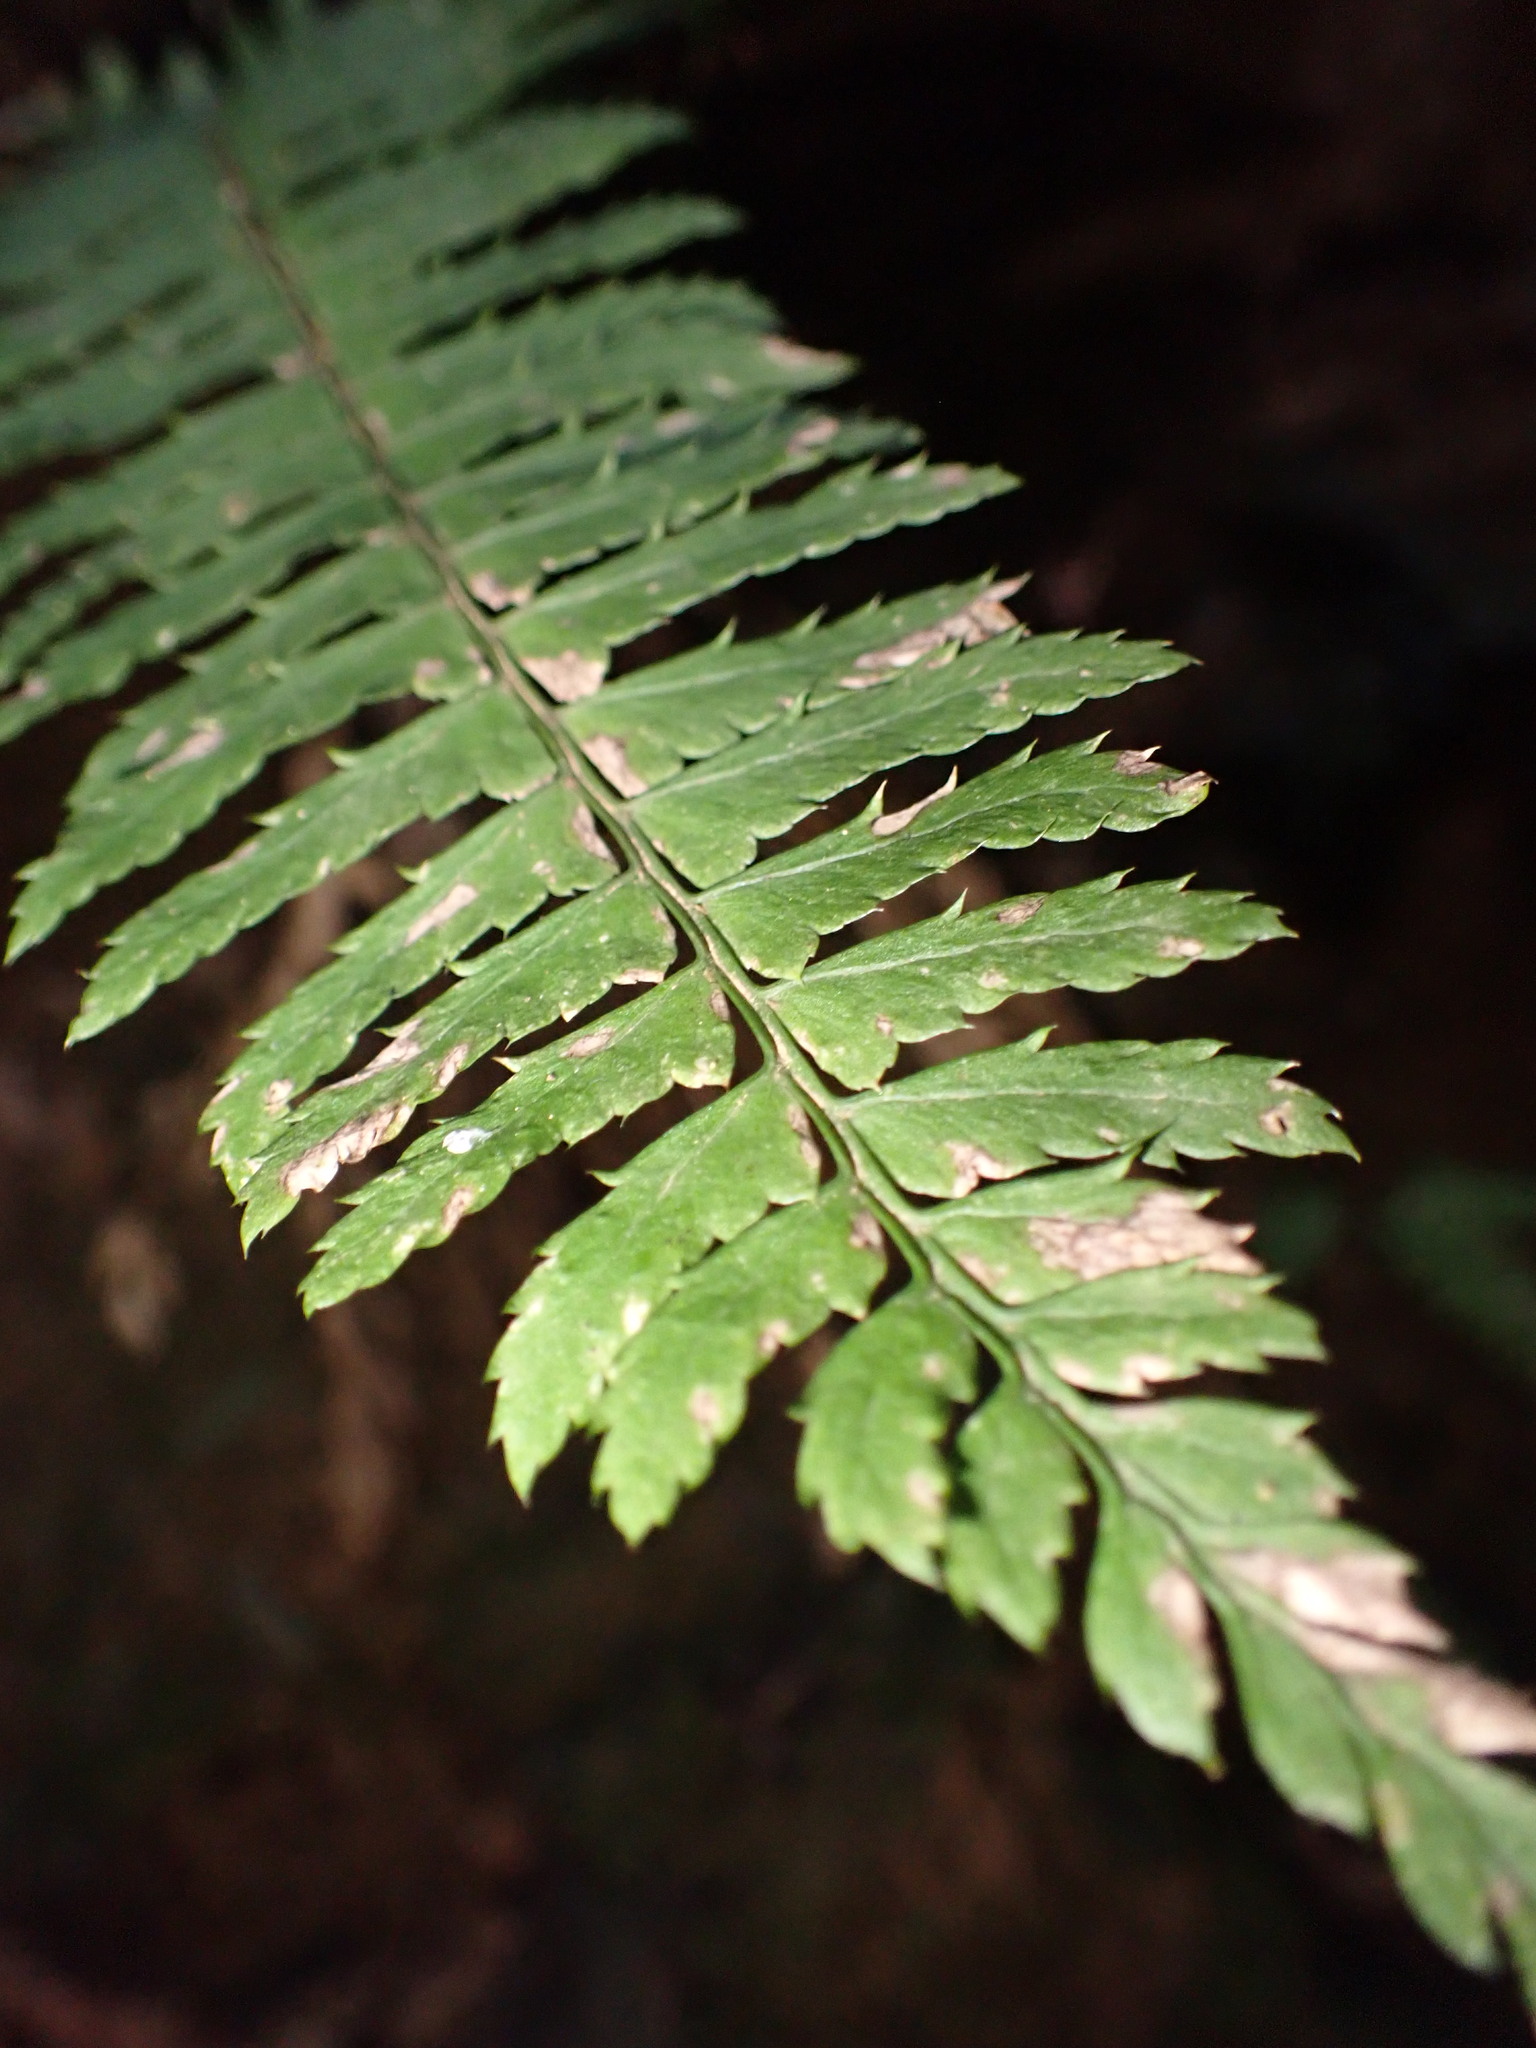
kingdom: Plantae
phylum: Tracheophyta
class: Polypodiopsida
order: Polypodiales
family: Dryopteridaceae
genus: Polystichum
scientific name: Polystichum tripteron
